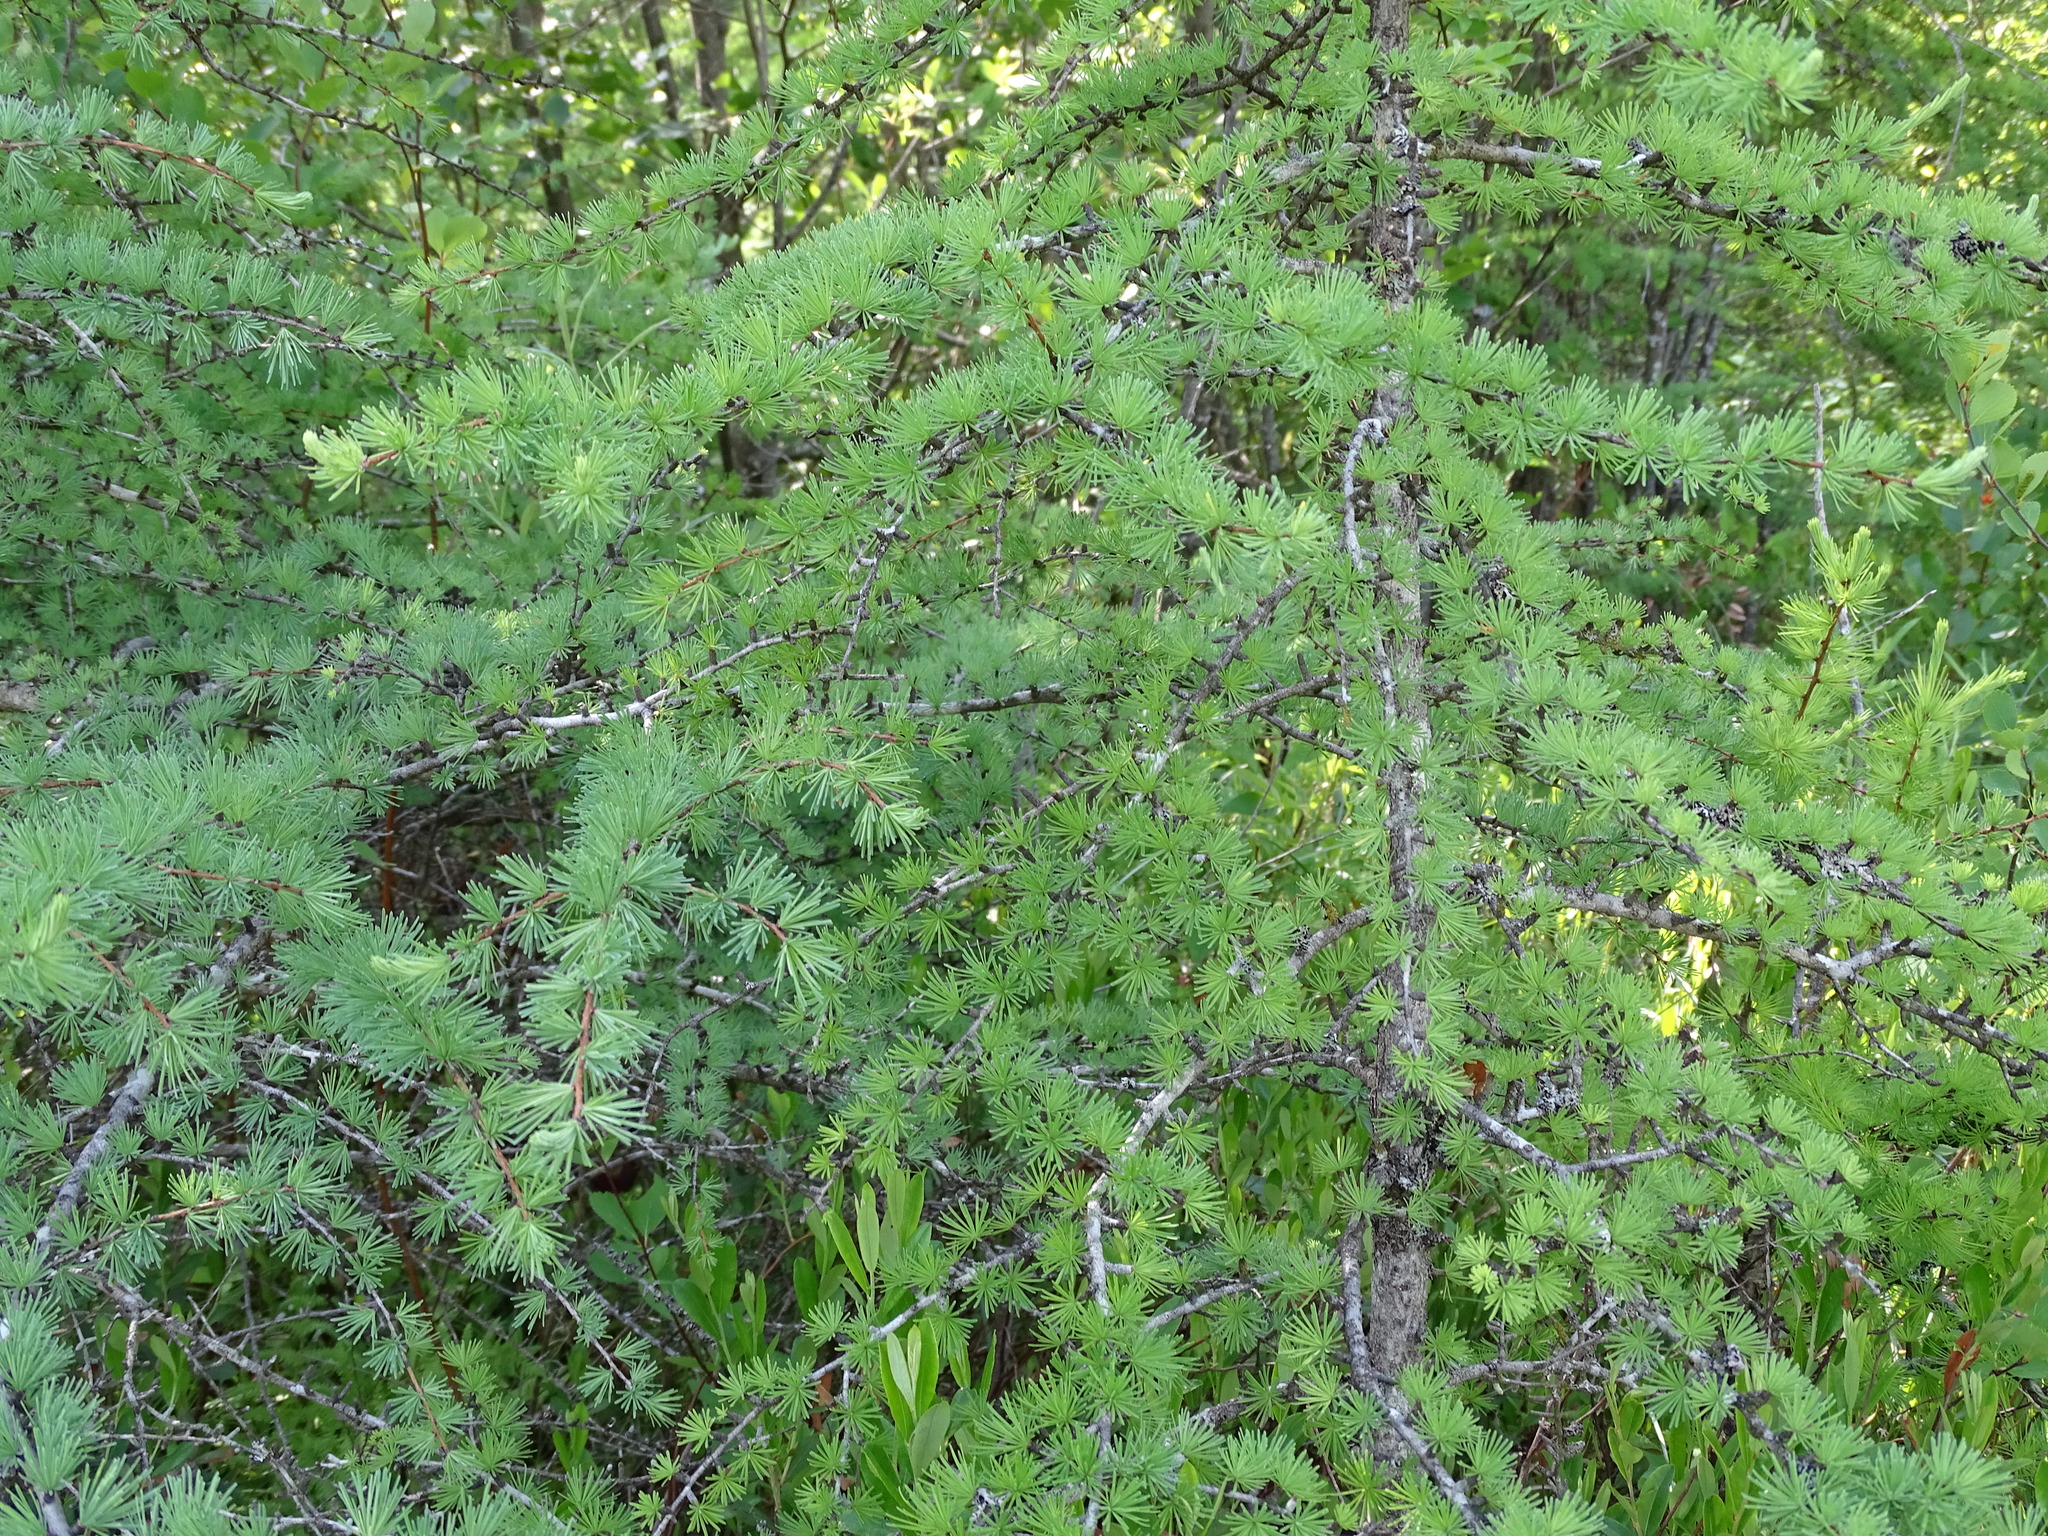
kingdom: Plantae
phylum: Tracheophyta
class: Pinopsida
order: Pinales
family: Pinaceae
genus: Larix
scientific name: Larix laricina
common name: American larch
